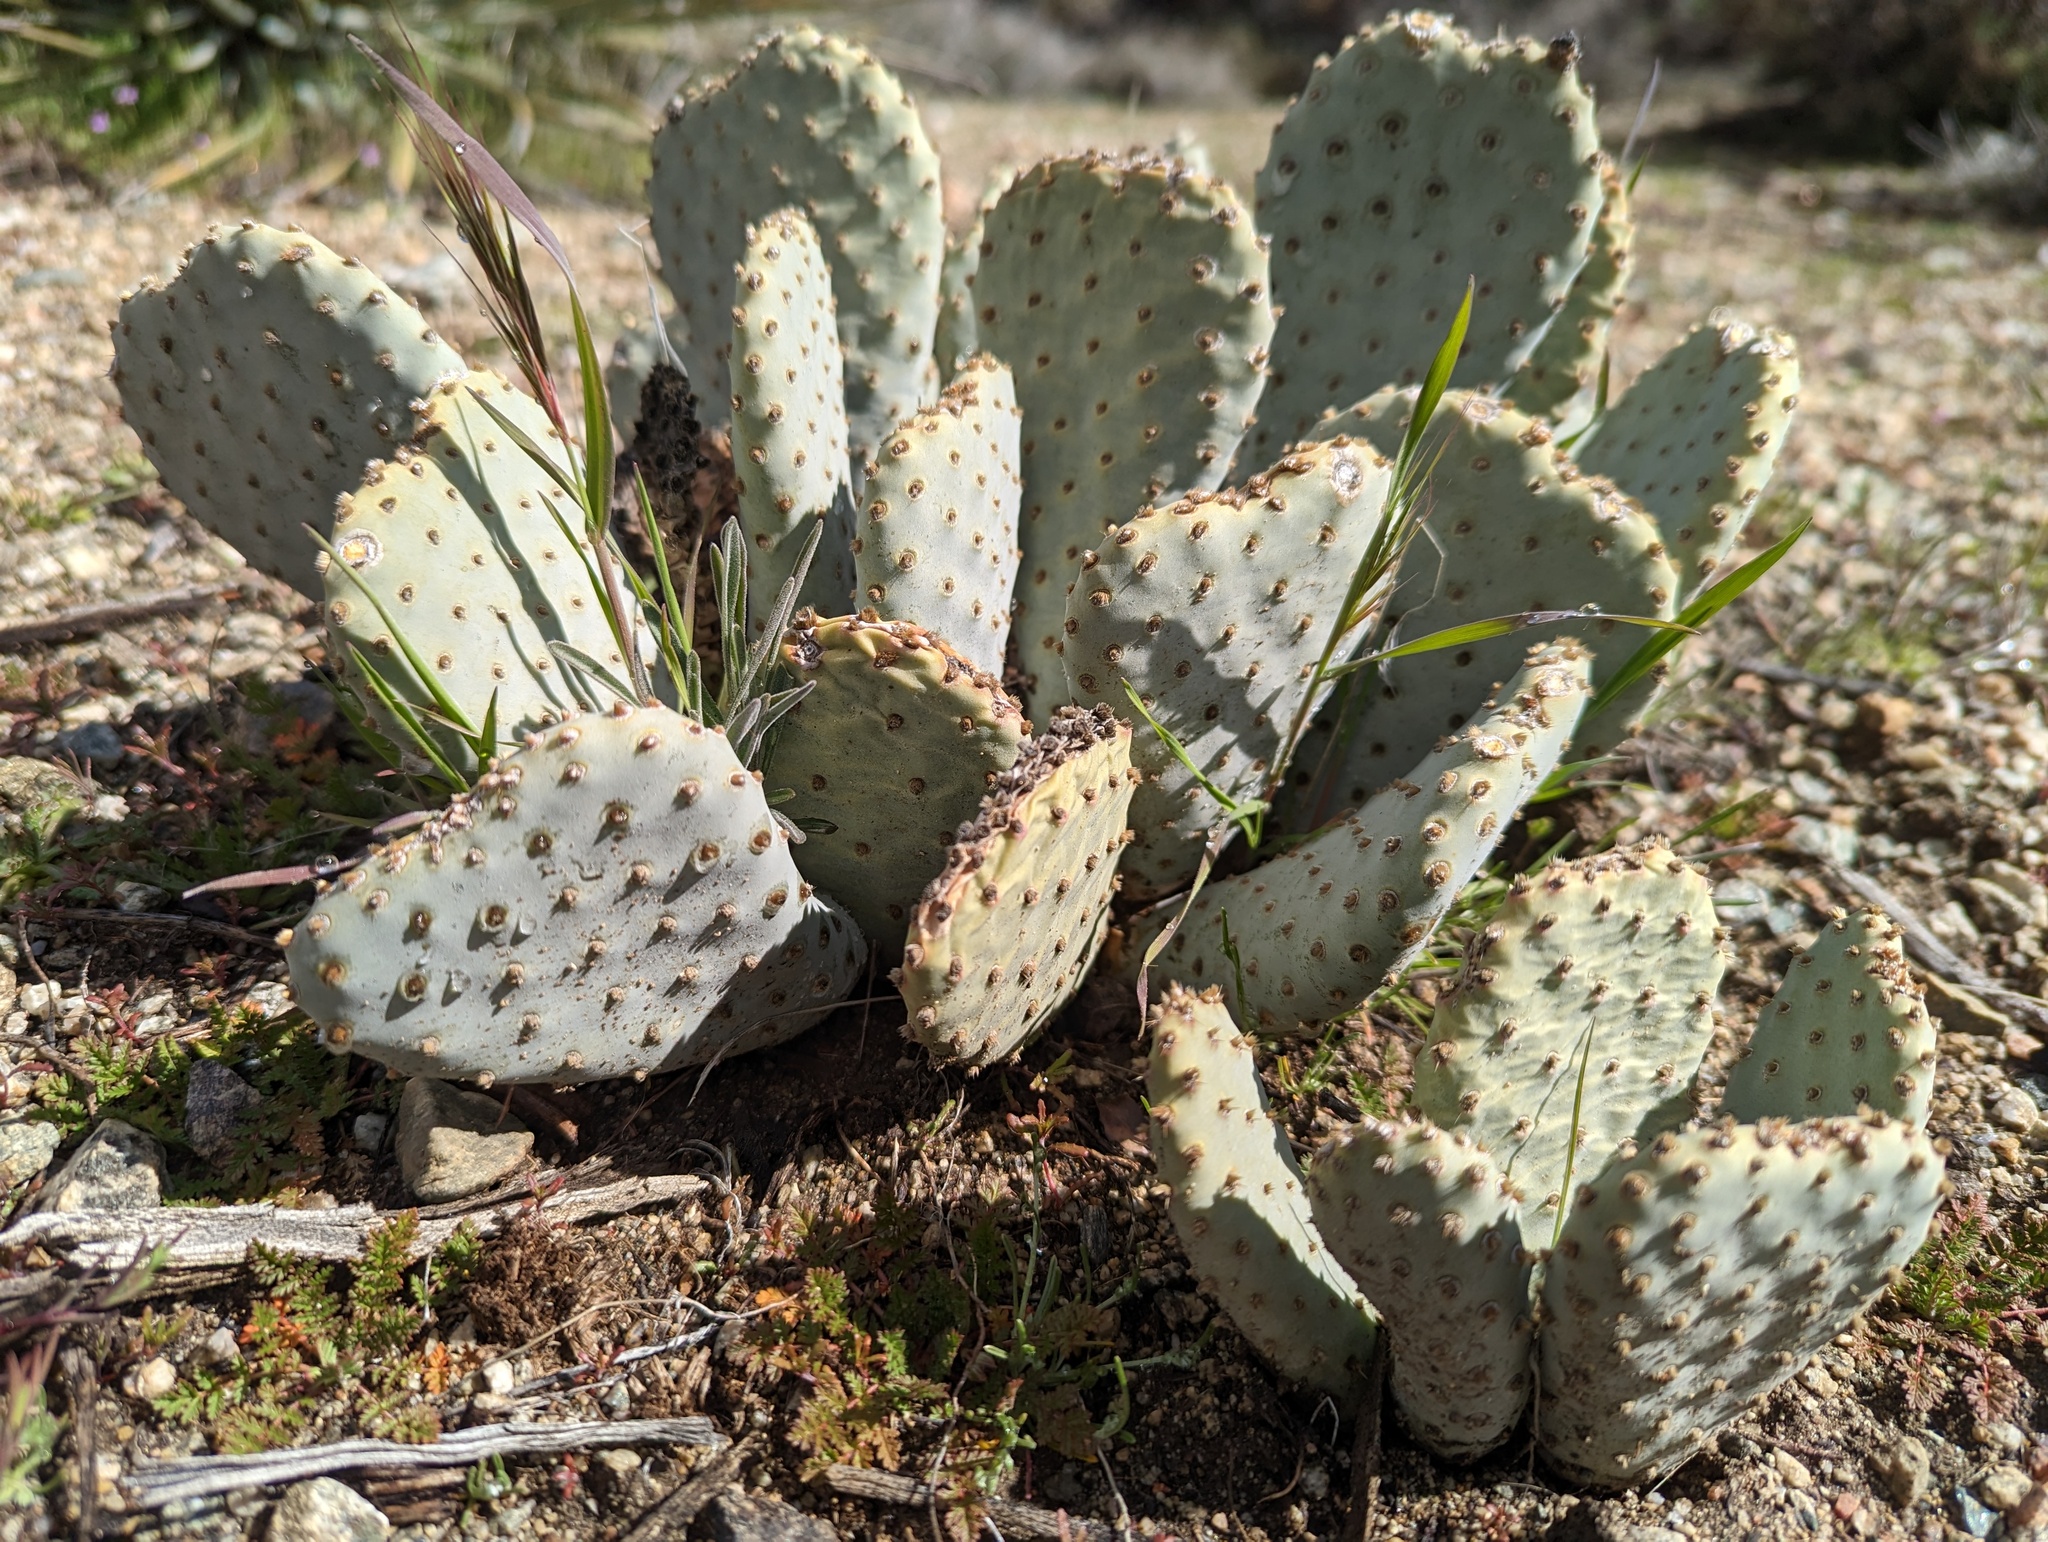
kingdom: Plantae
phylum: Tracheophyta
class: Magnoliopsida
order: Caryophyllales
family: Cactaceae
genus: Opuntia
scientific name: Opuntia basilaris
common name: Beavertail prickly-pear
